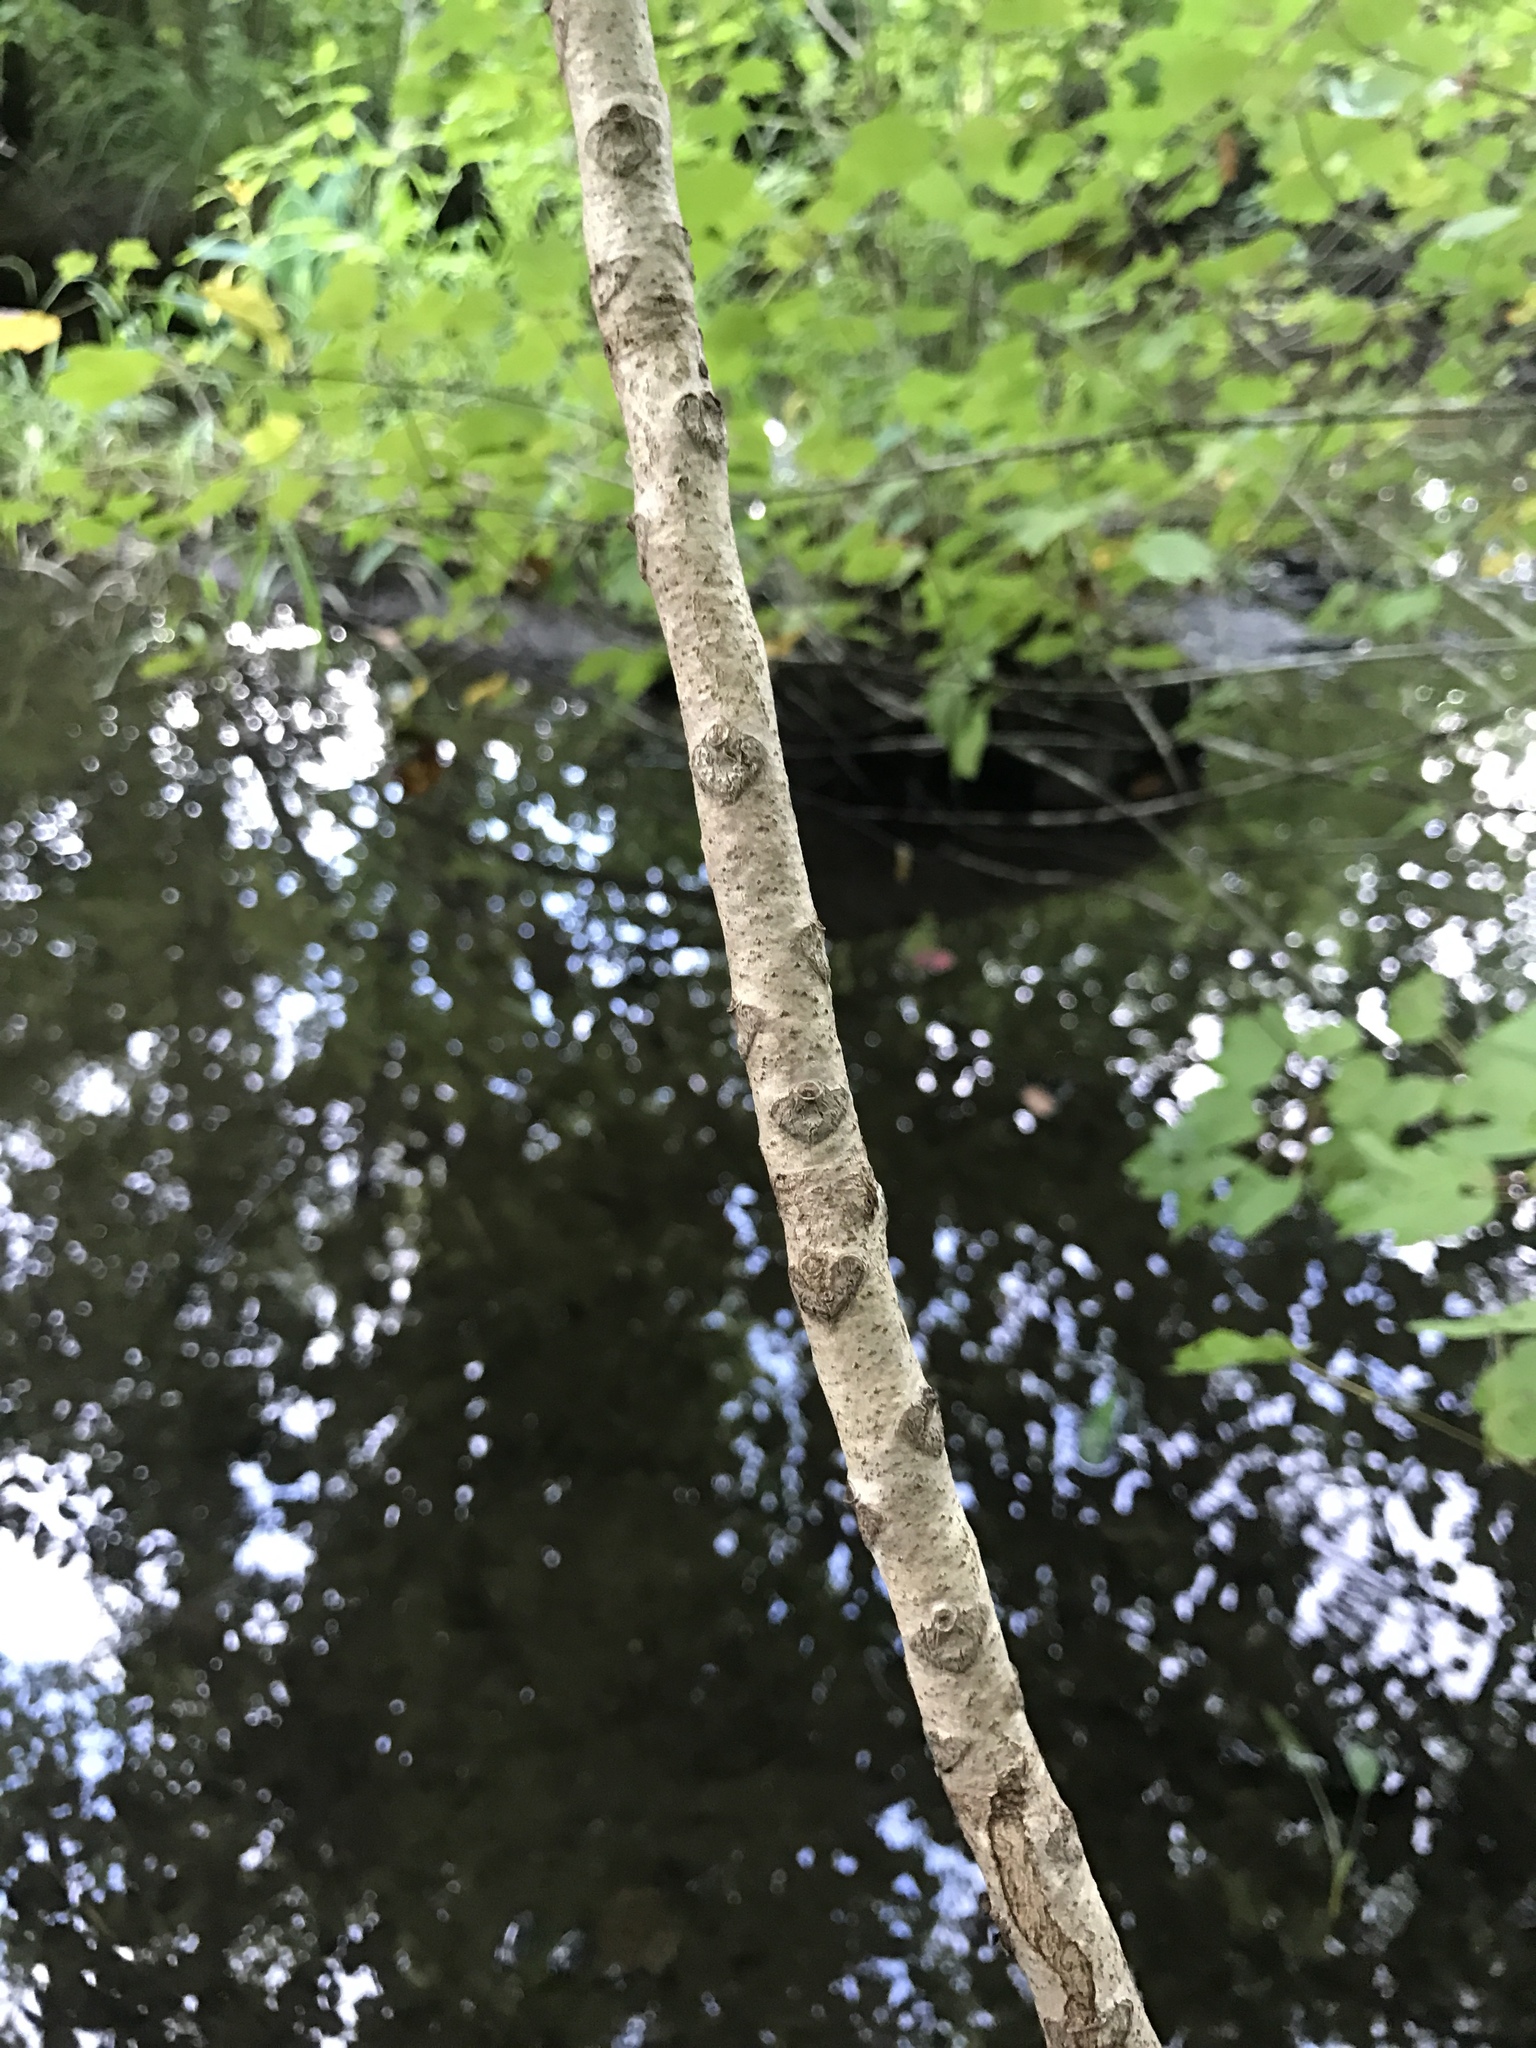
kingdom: Plantae
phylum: Tracheophyta
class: Magnoliopsida
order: Sapindales
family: Anacardiaceae
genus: Toxicodendron
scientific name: Toxicodendron vernix
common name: Poison sumac
